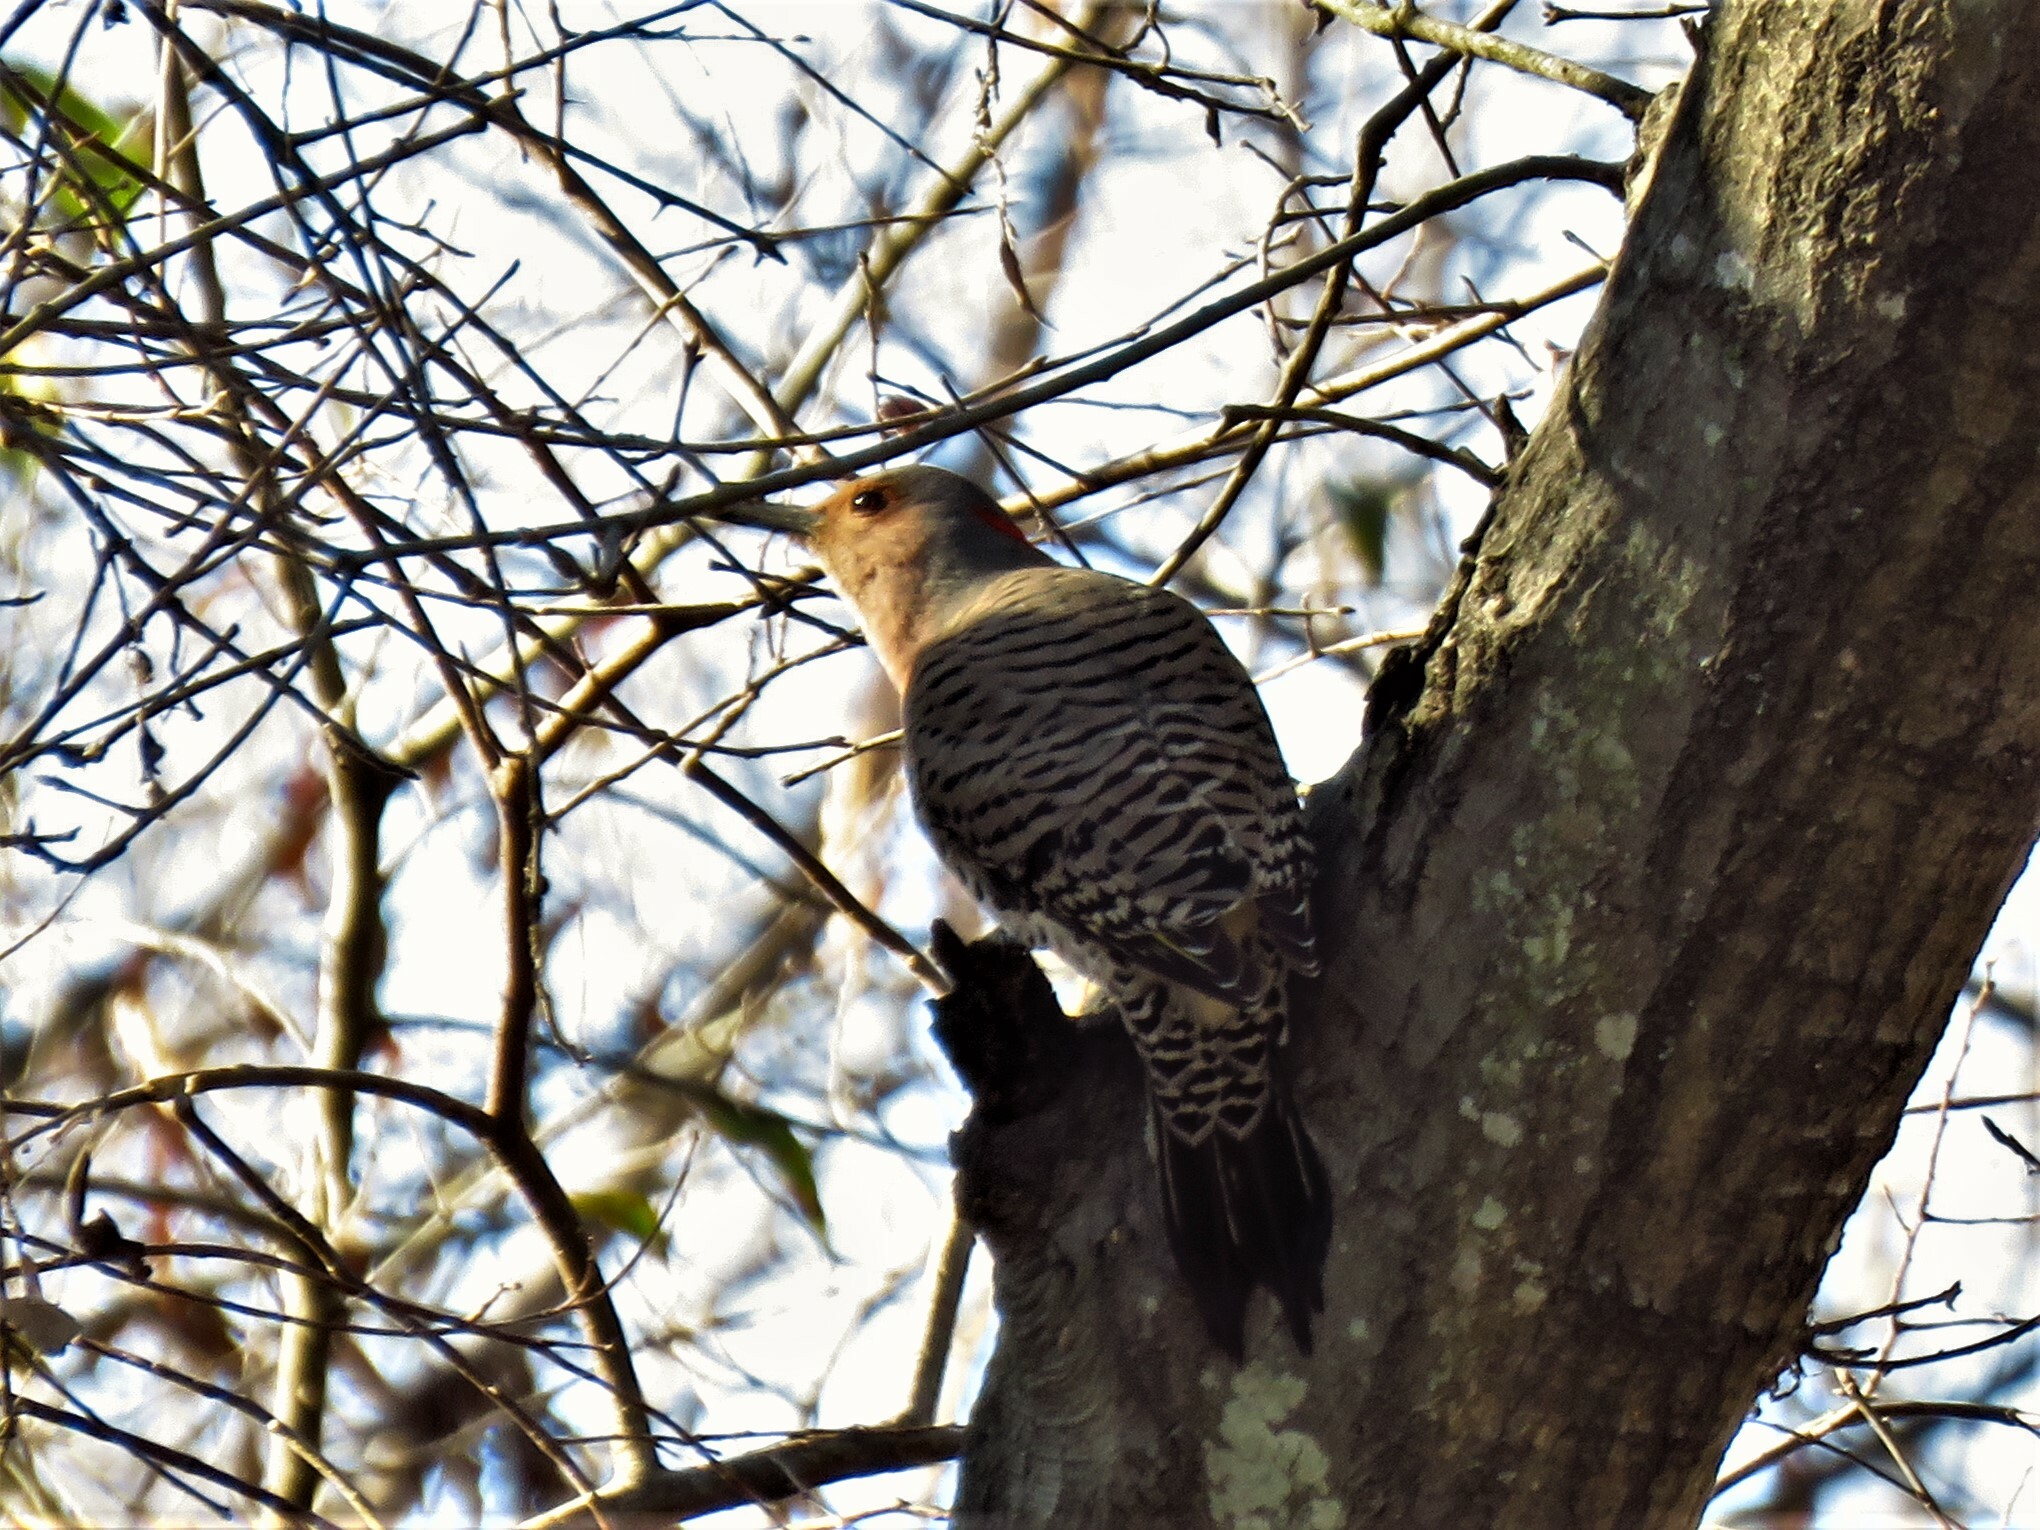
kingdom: Animalia
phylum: Chordata
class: Aves
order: Piciformes
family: Picidae
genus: Colaptes
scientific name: Colaptes auratus
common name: Northern flicker
